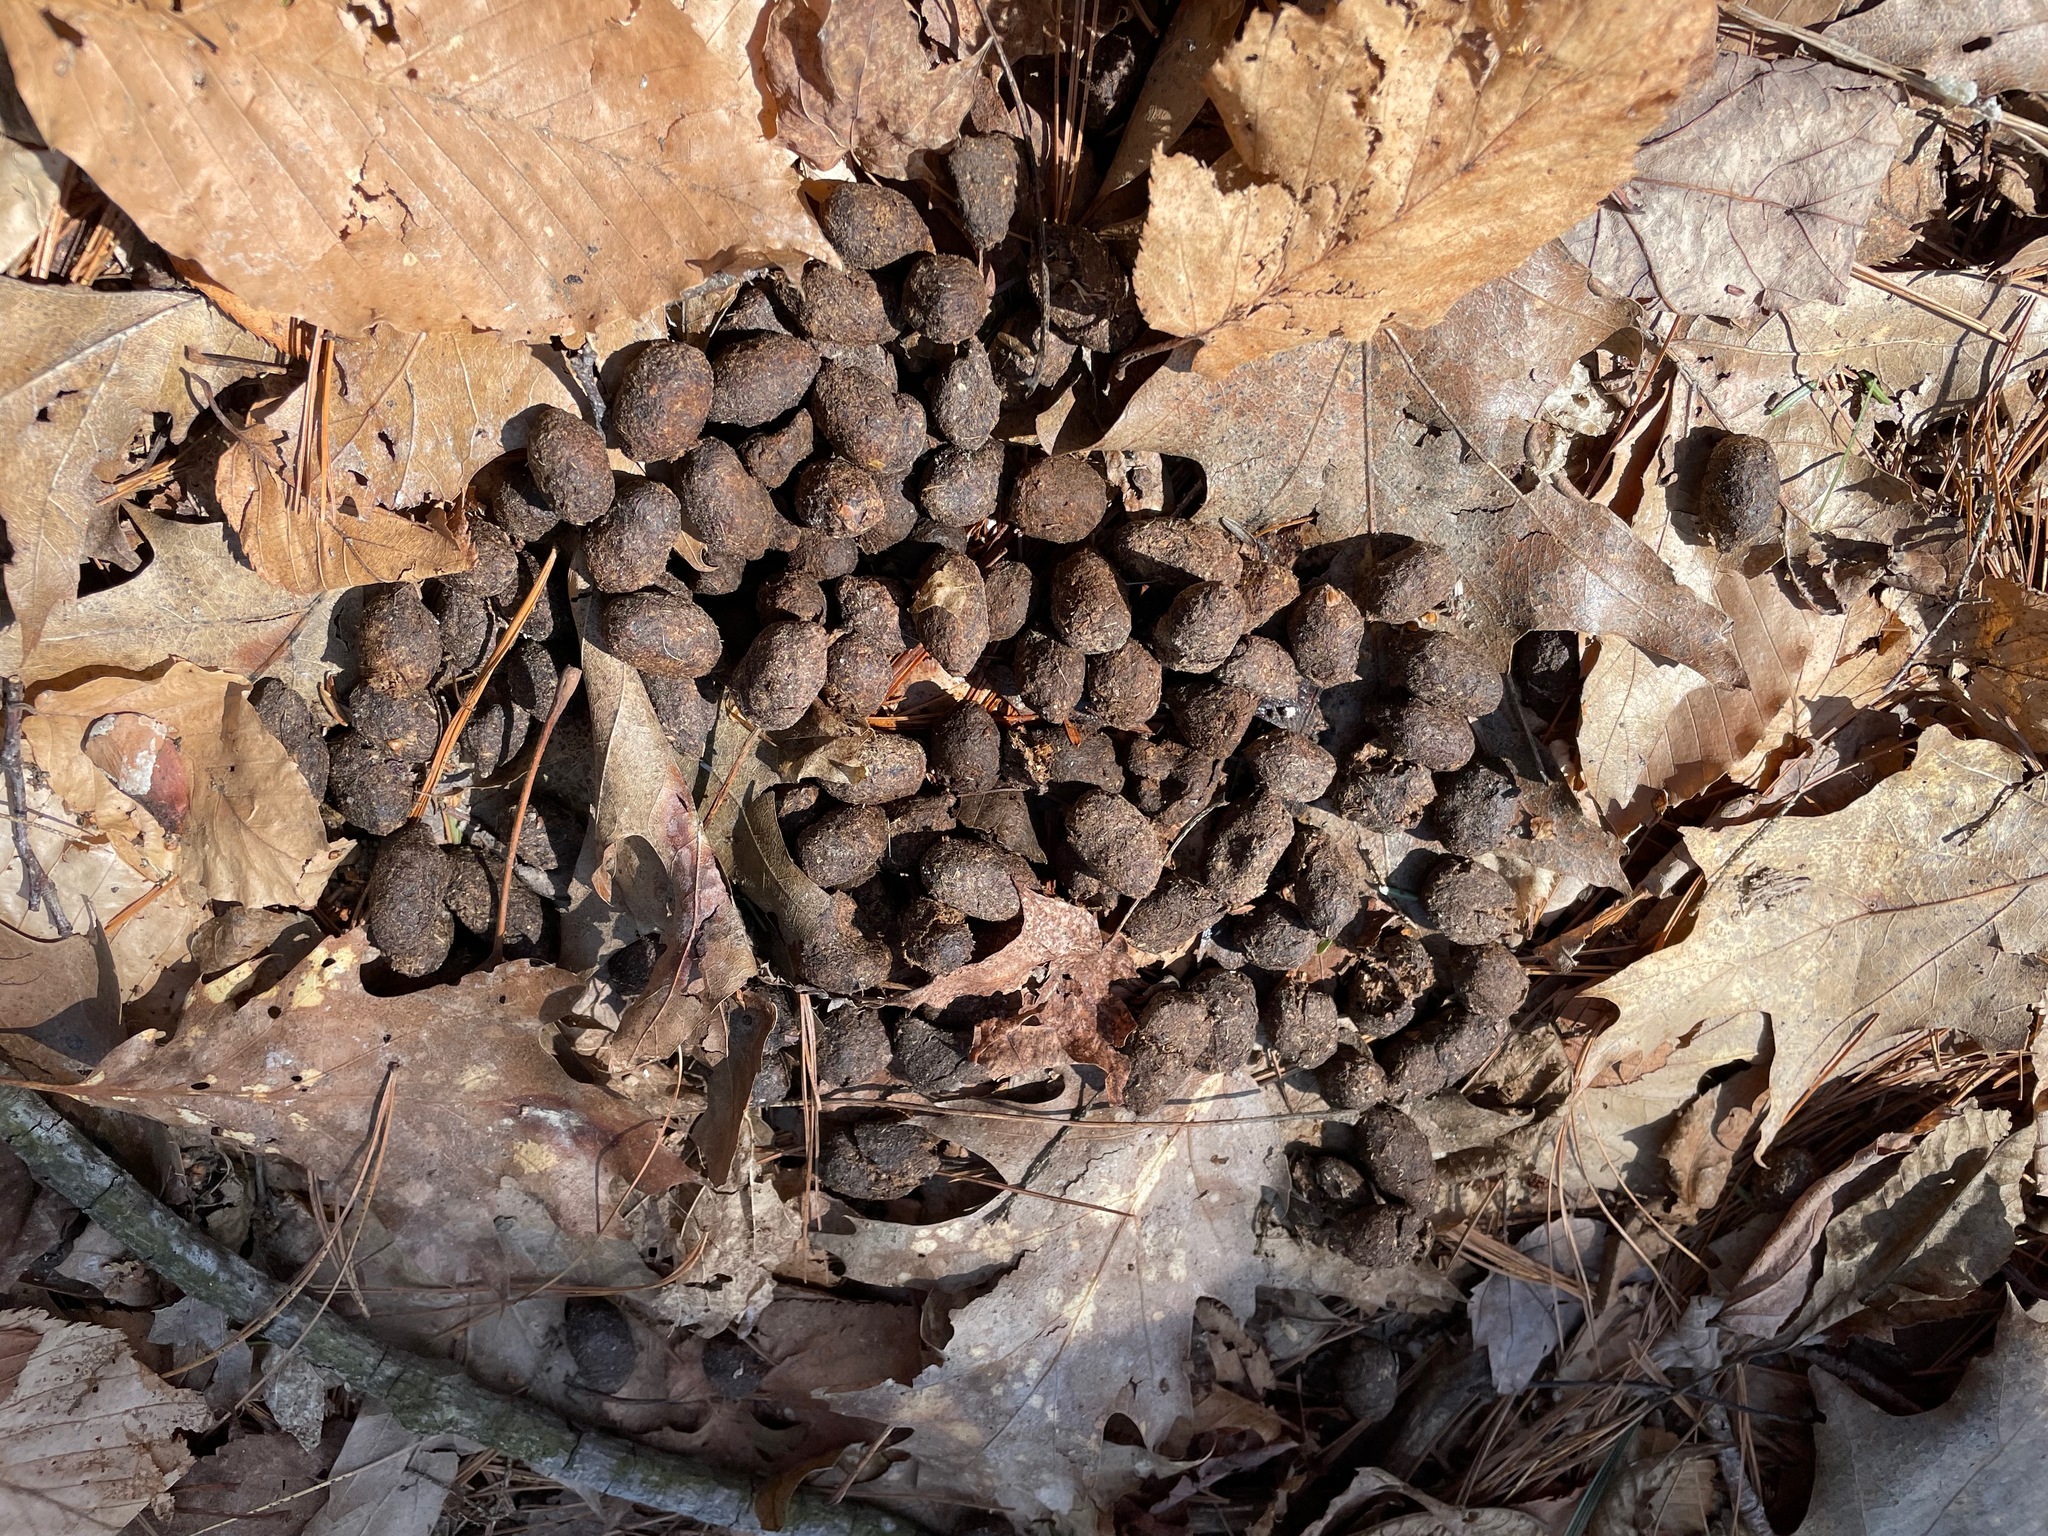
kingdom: Animalia
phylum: Chordata
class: Mammalia
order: Artiodactyla
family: Cervidae
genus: Odocoileus
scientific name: Odocoileus virginianus
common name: White-tailed deer
